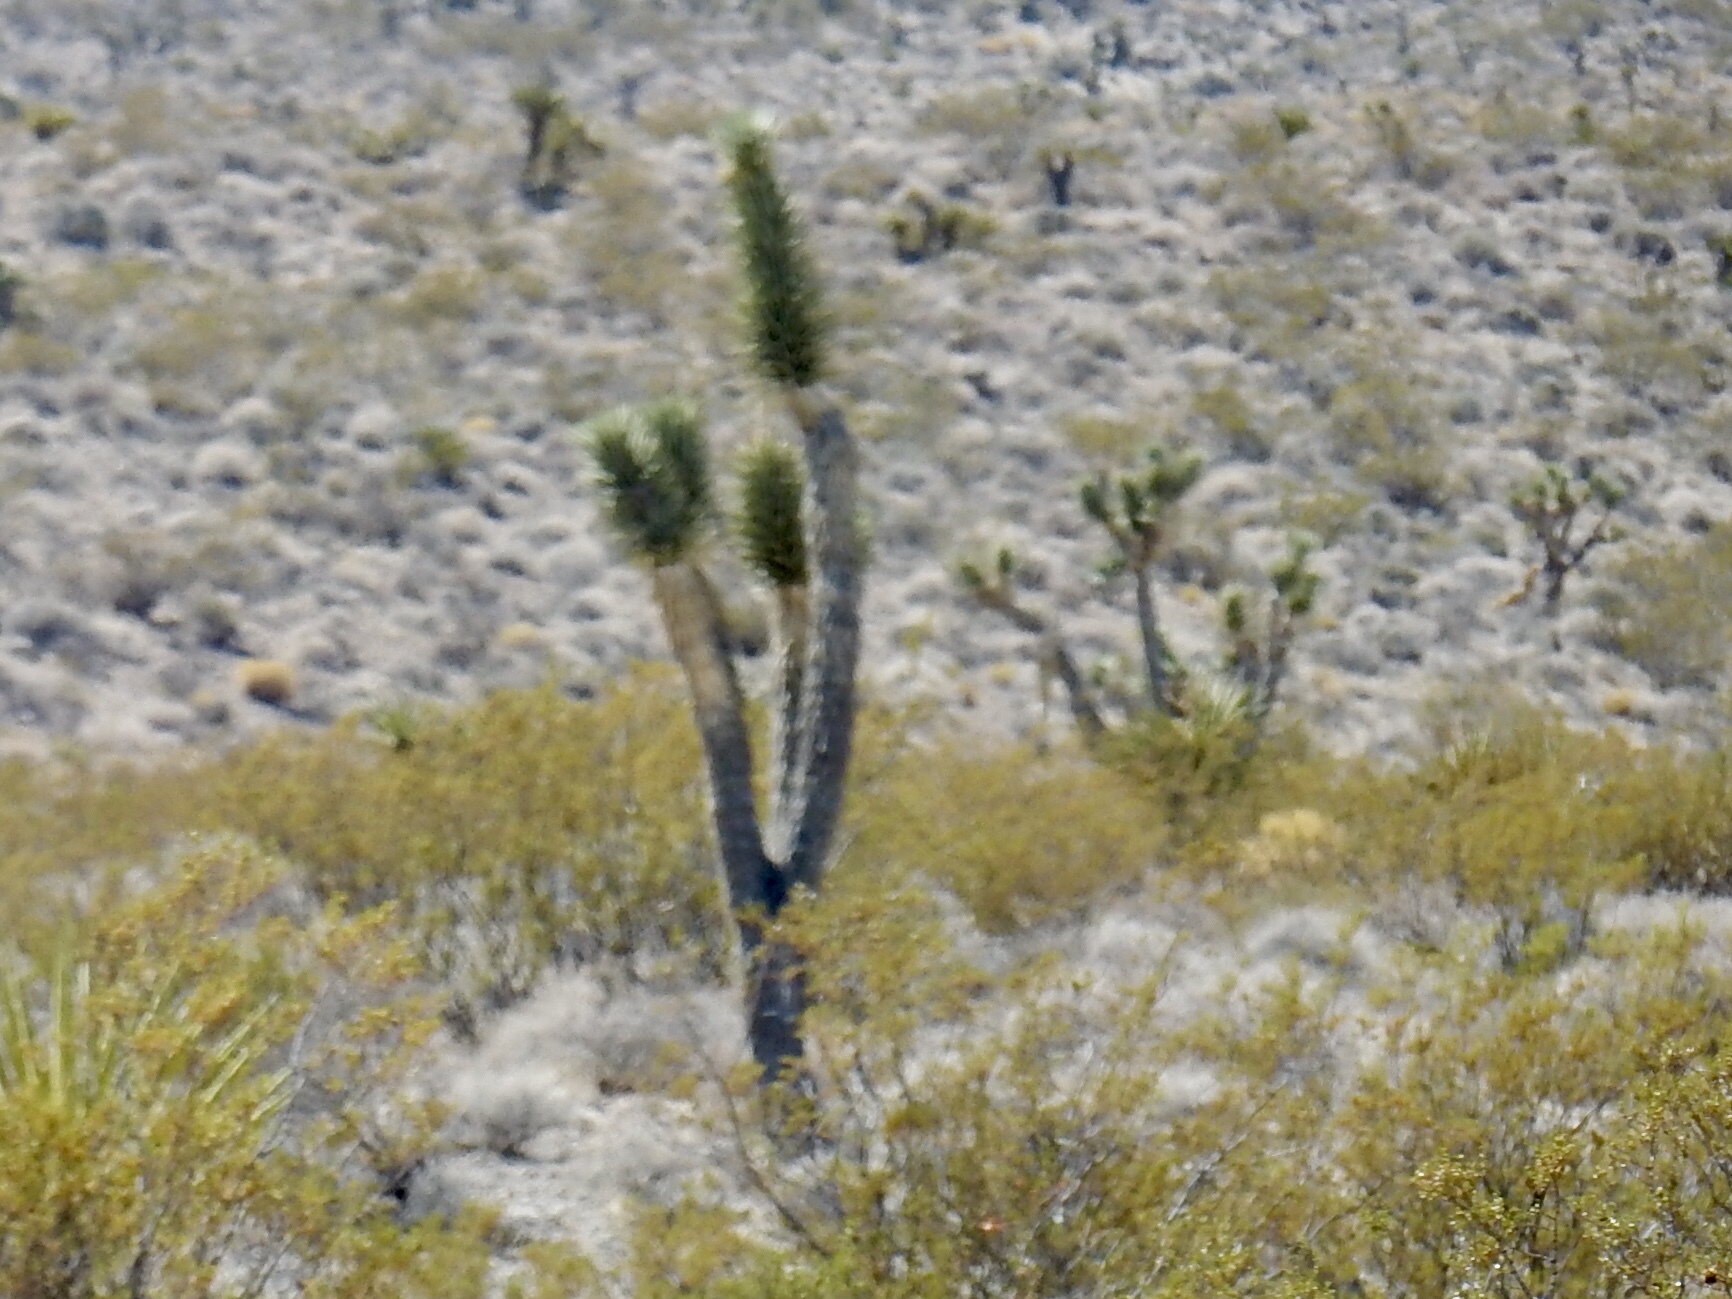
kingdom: Plantae
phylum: Tracheophyta
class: Liliopsida
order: Asparagales
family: Asparagaceae
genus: Yucca
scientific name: Yucca brevifolia
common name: Joshua tree
